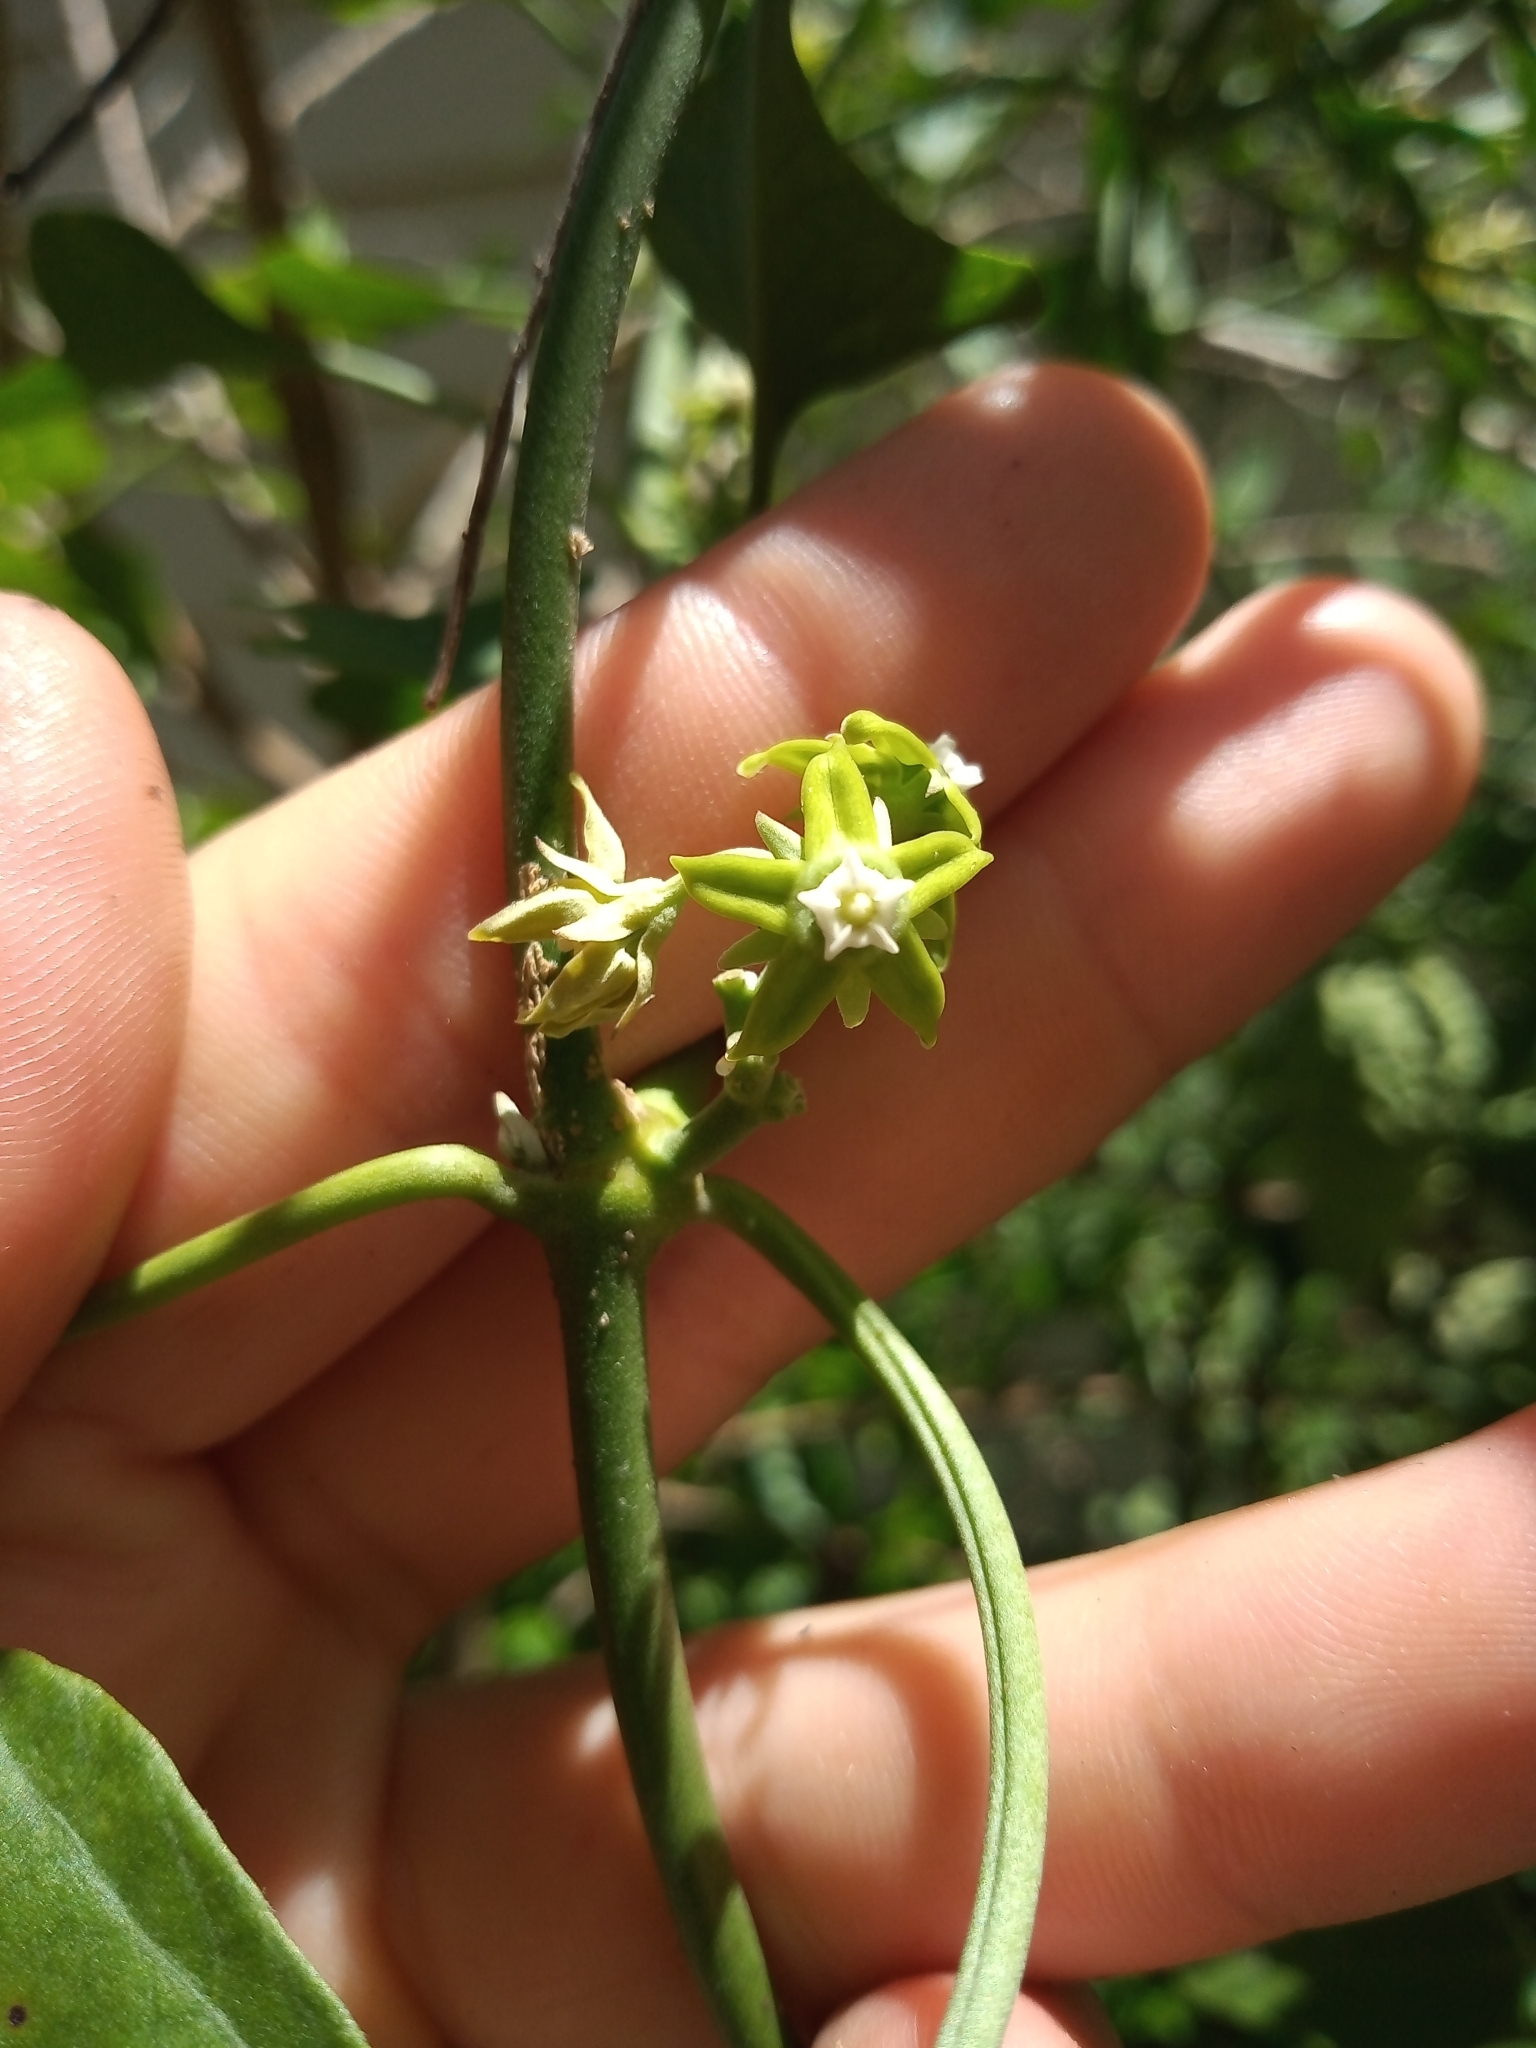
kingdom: Plantae
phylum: Tracheophyta
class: Magnoliopsida
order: Gentianales
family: Apocynaceae
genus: Araujia
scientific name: Araujia brachystephana
